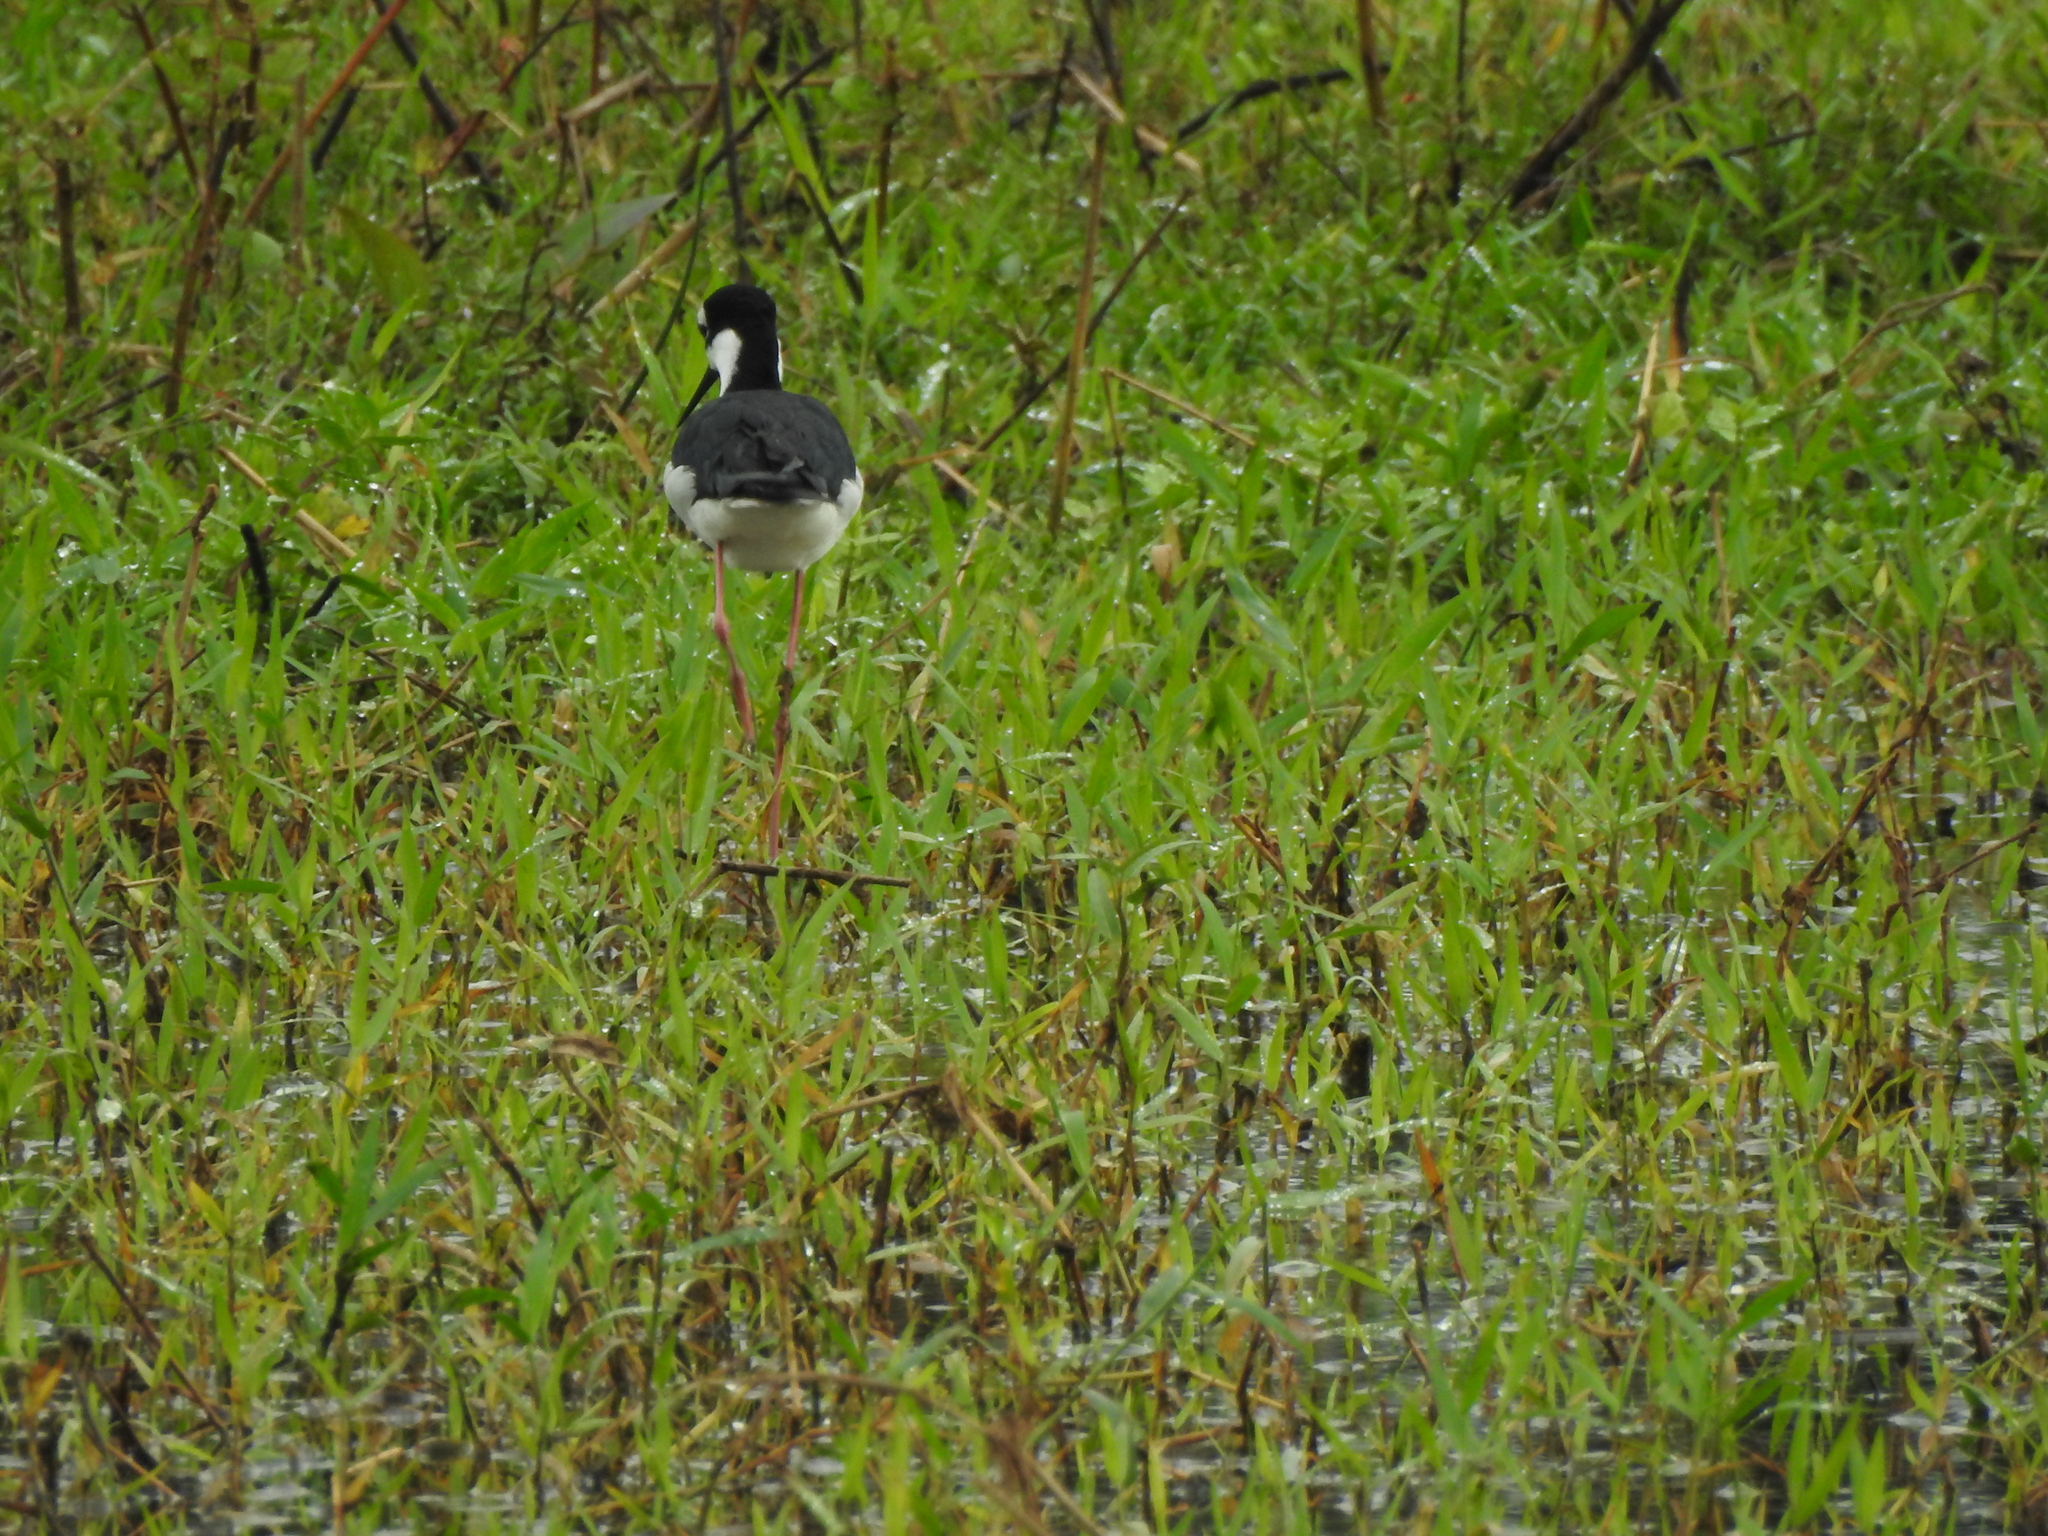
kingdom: Animalia
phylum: Chordata
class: Aves
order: Charadriiformes
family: Recurvirostridae
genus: Himantopus
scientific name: Himantopus mexicanus
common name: Black-necked stilt
